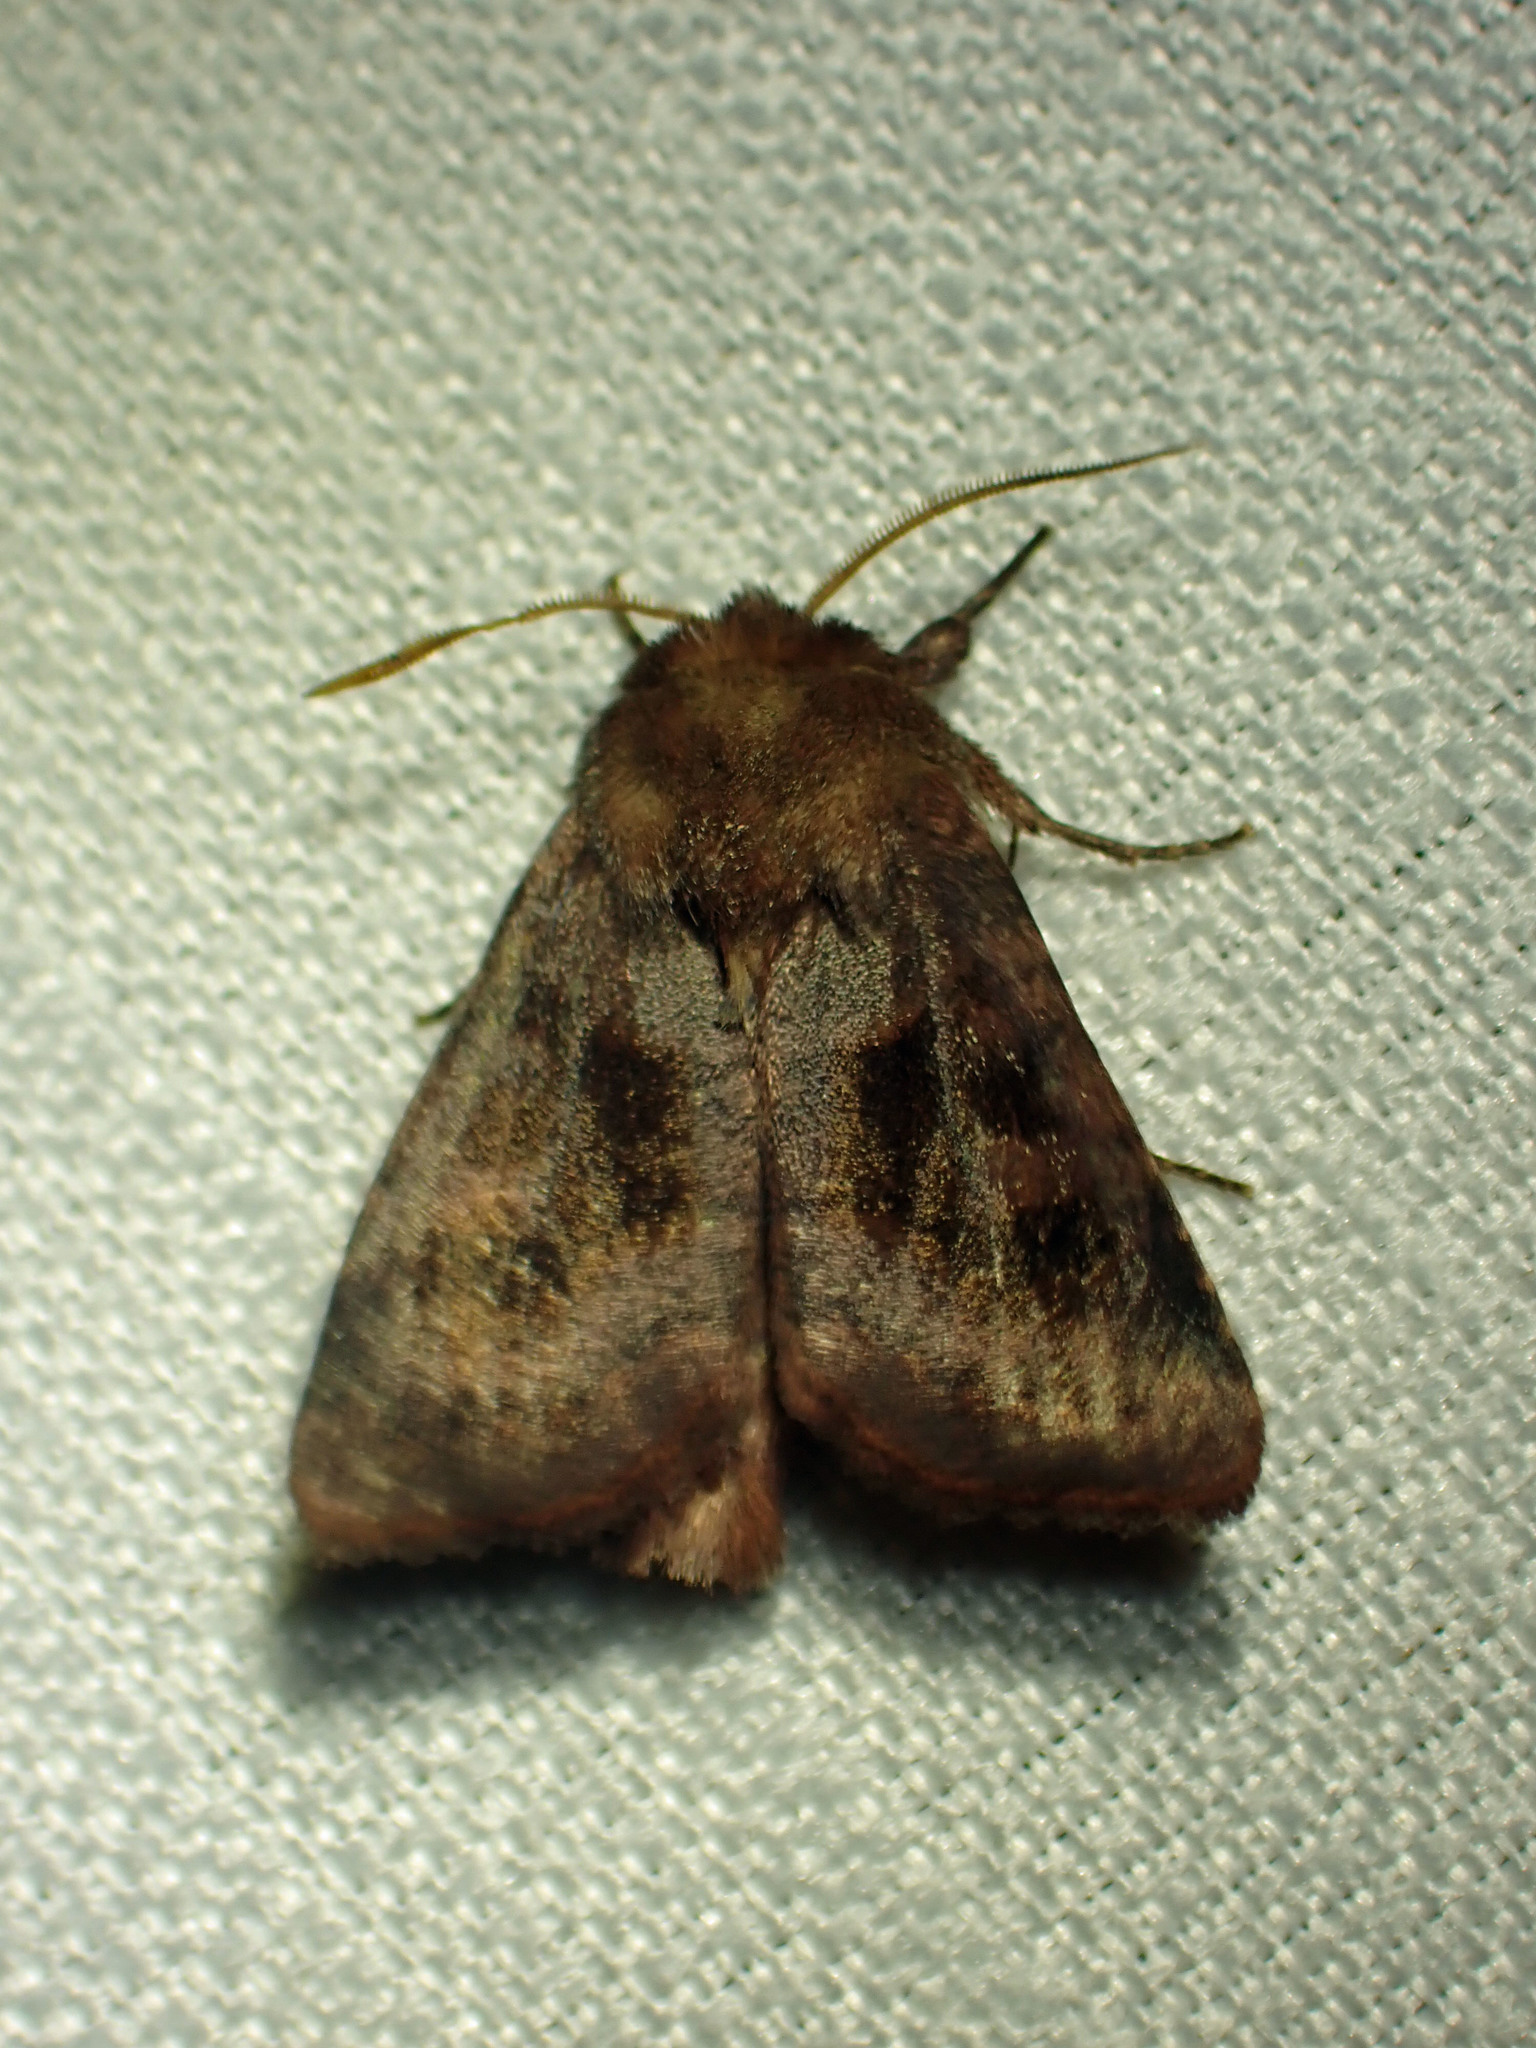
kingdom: Animalia
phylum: Arthropoda
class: Insecta
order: Lepidoptera
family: Noctuidae
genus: Nephelodes
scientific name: Nephelodes minians
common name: Bronzed cutworm
